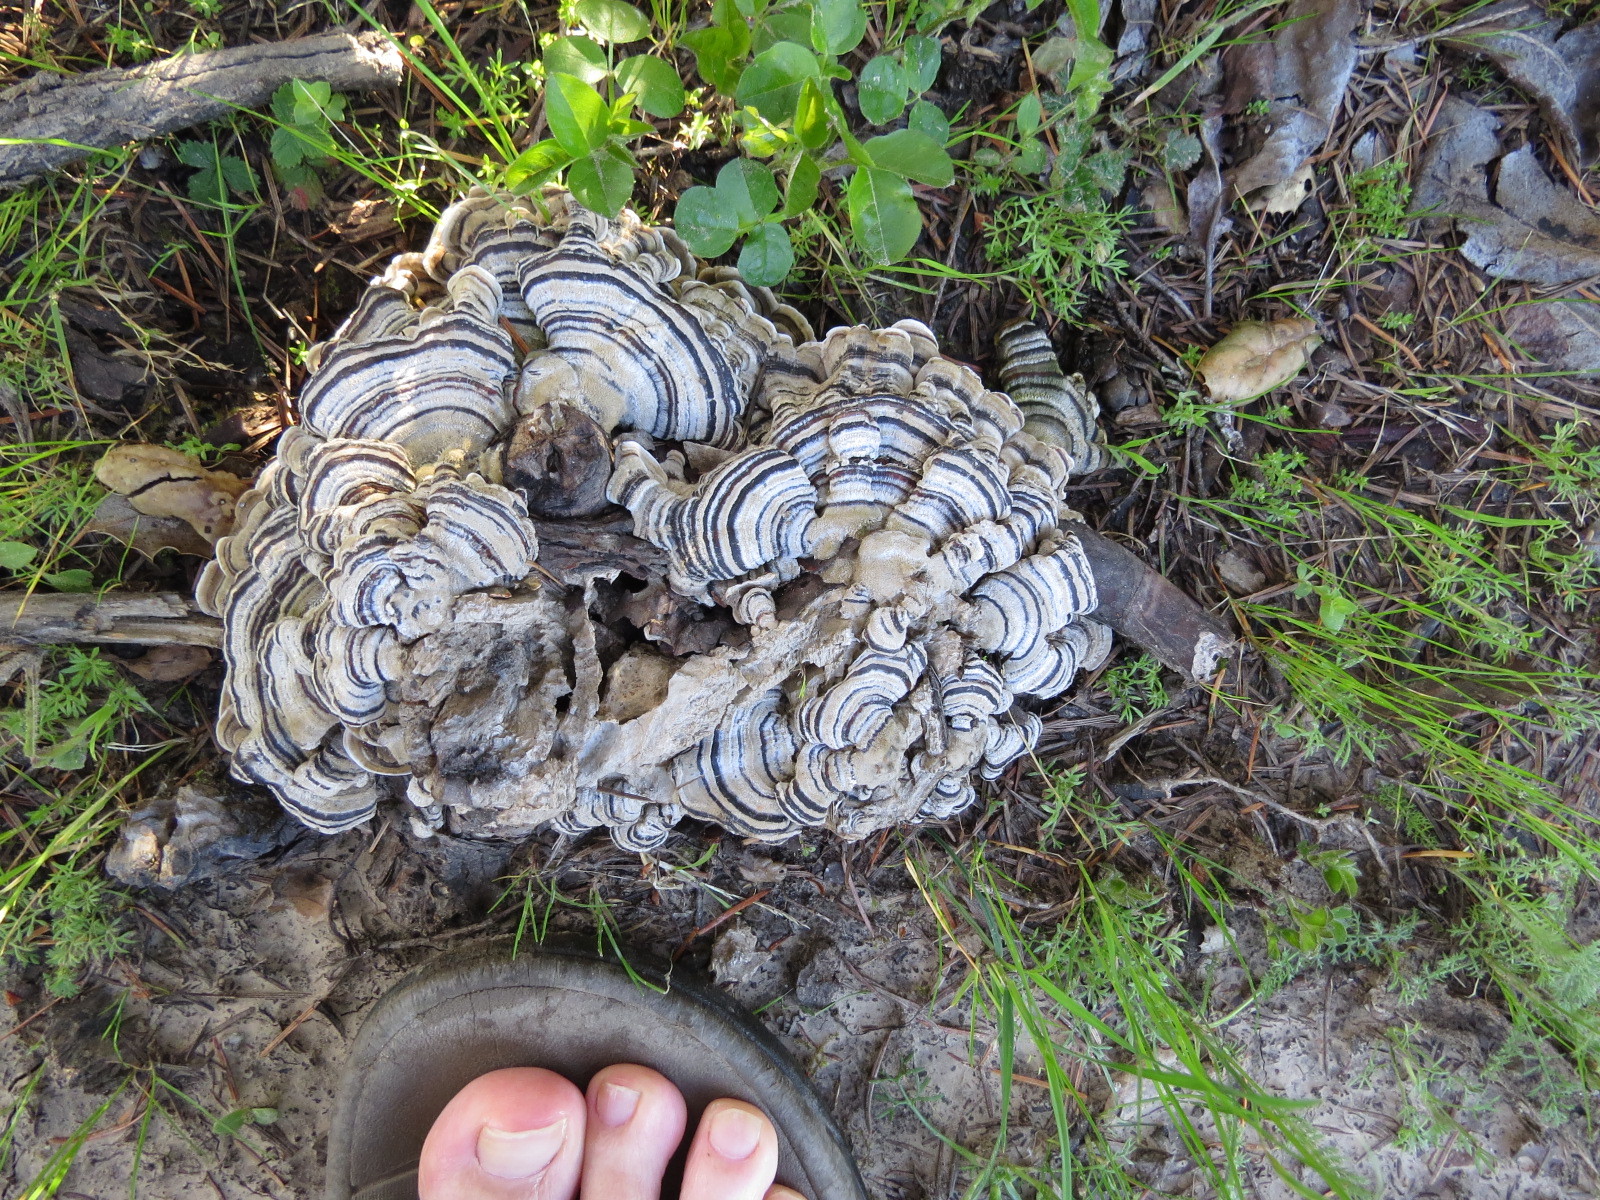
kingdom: Fungi
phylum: Basidiomycota
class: Agaricomycetes
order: Polyporales
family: Polyporaceae
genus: Trametes
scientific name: Trametes versicolor
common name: Turkeytail
